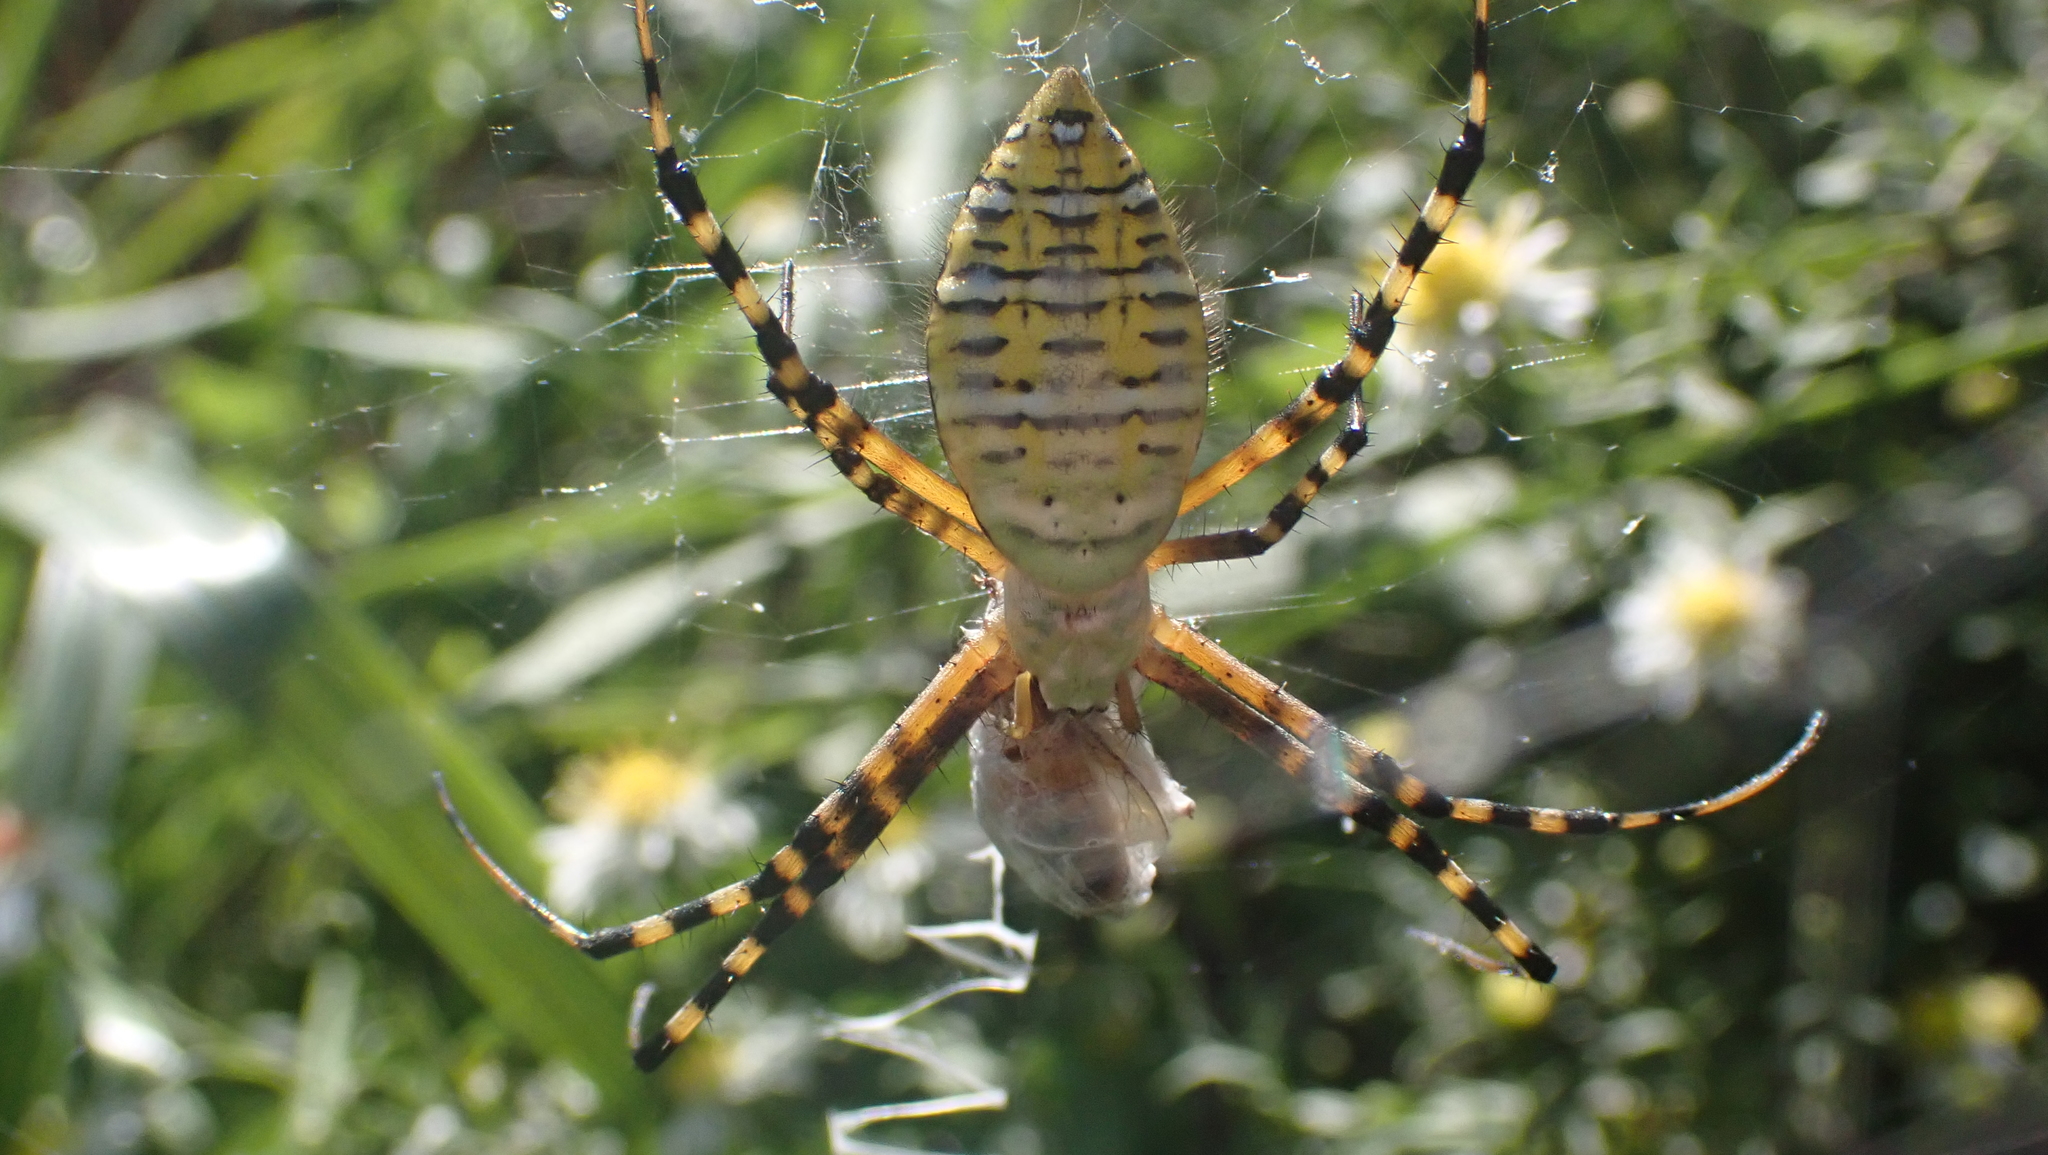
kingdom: Animalia
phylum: Arthropoda
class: Arachnida
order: Araneae
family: Araneidae
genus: Argiope
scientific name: Argiope trifasciata
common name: Banded garden spider
